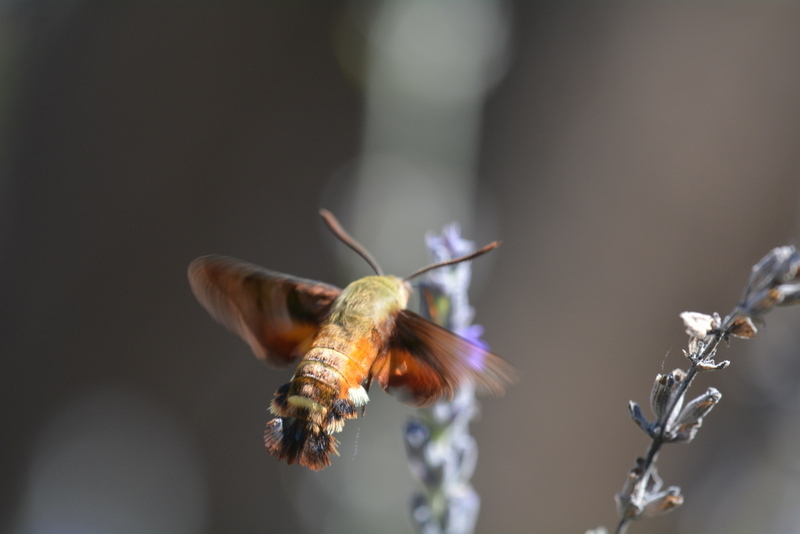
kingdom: Animalia
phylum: Arthropoda
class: Insecta
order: Lepidoptera
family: Sphingidae
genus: Macroglossum
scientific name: Macroglossum trochilus
